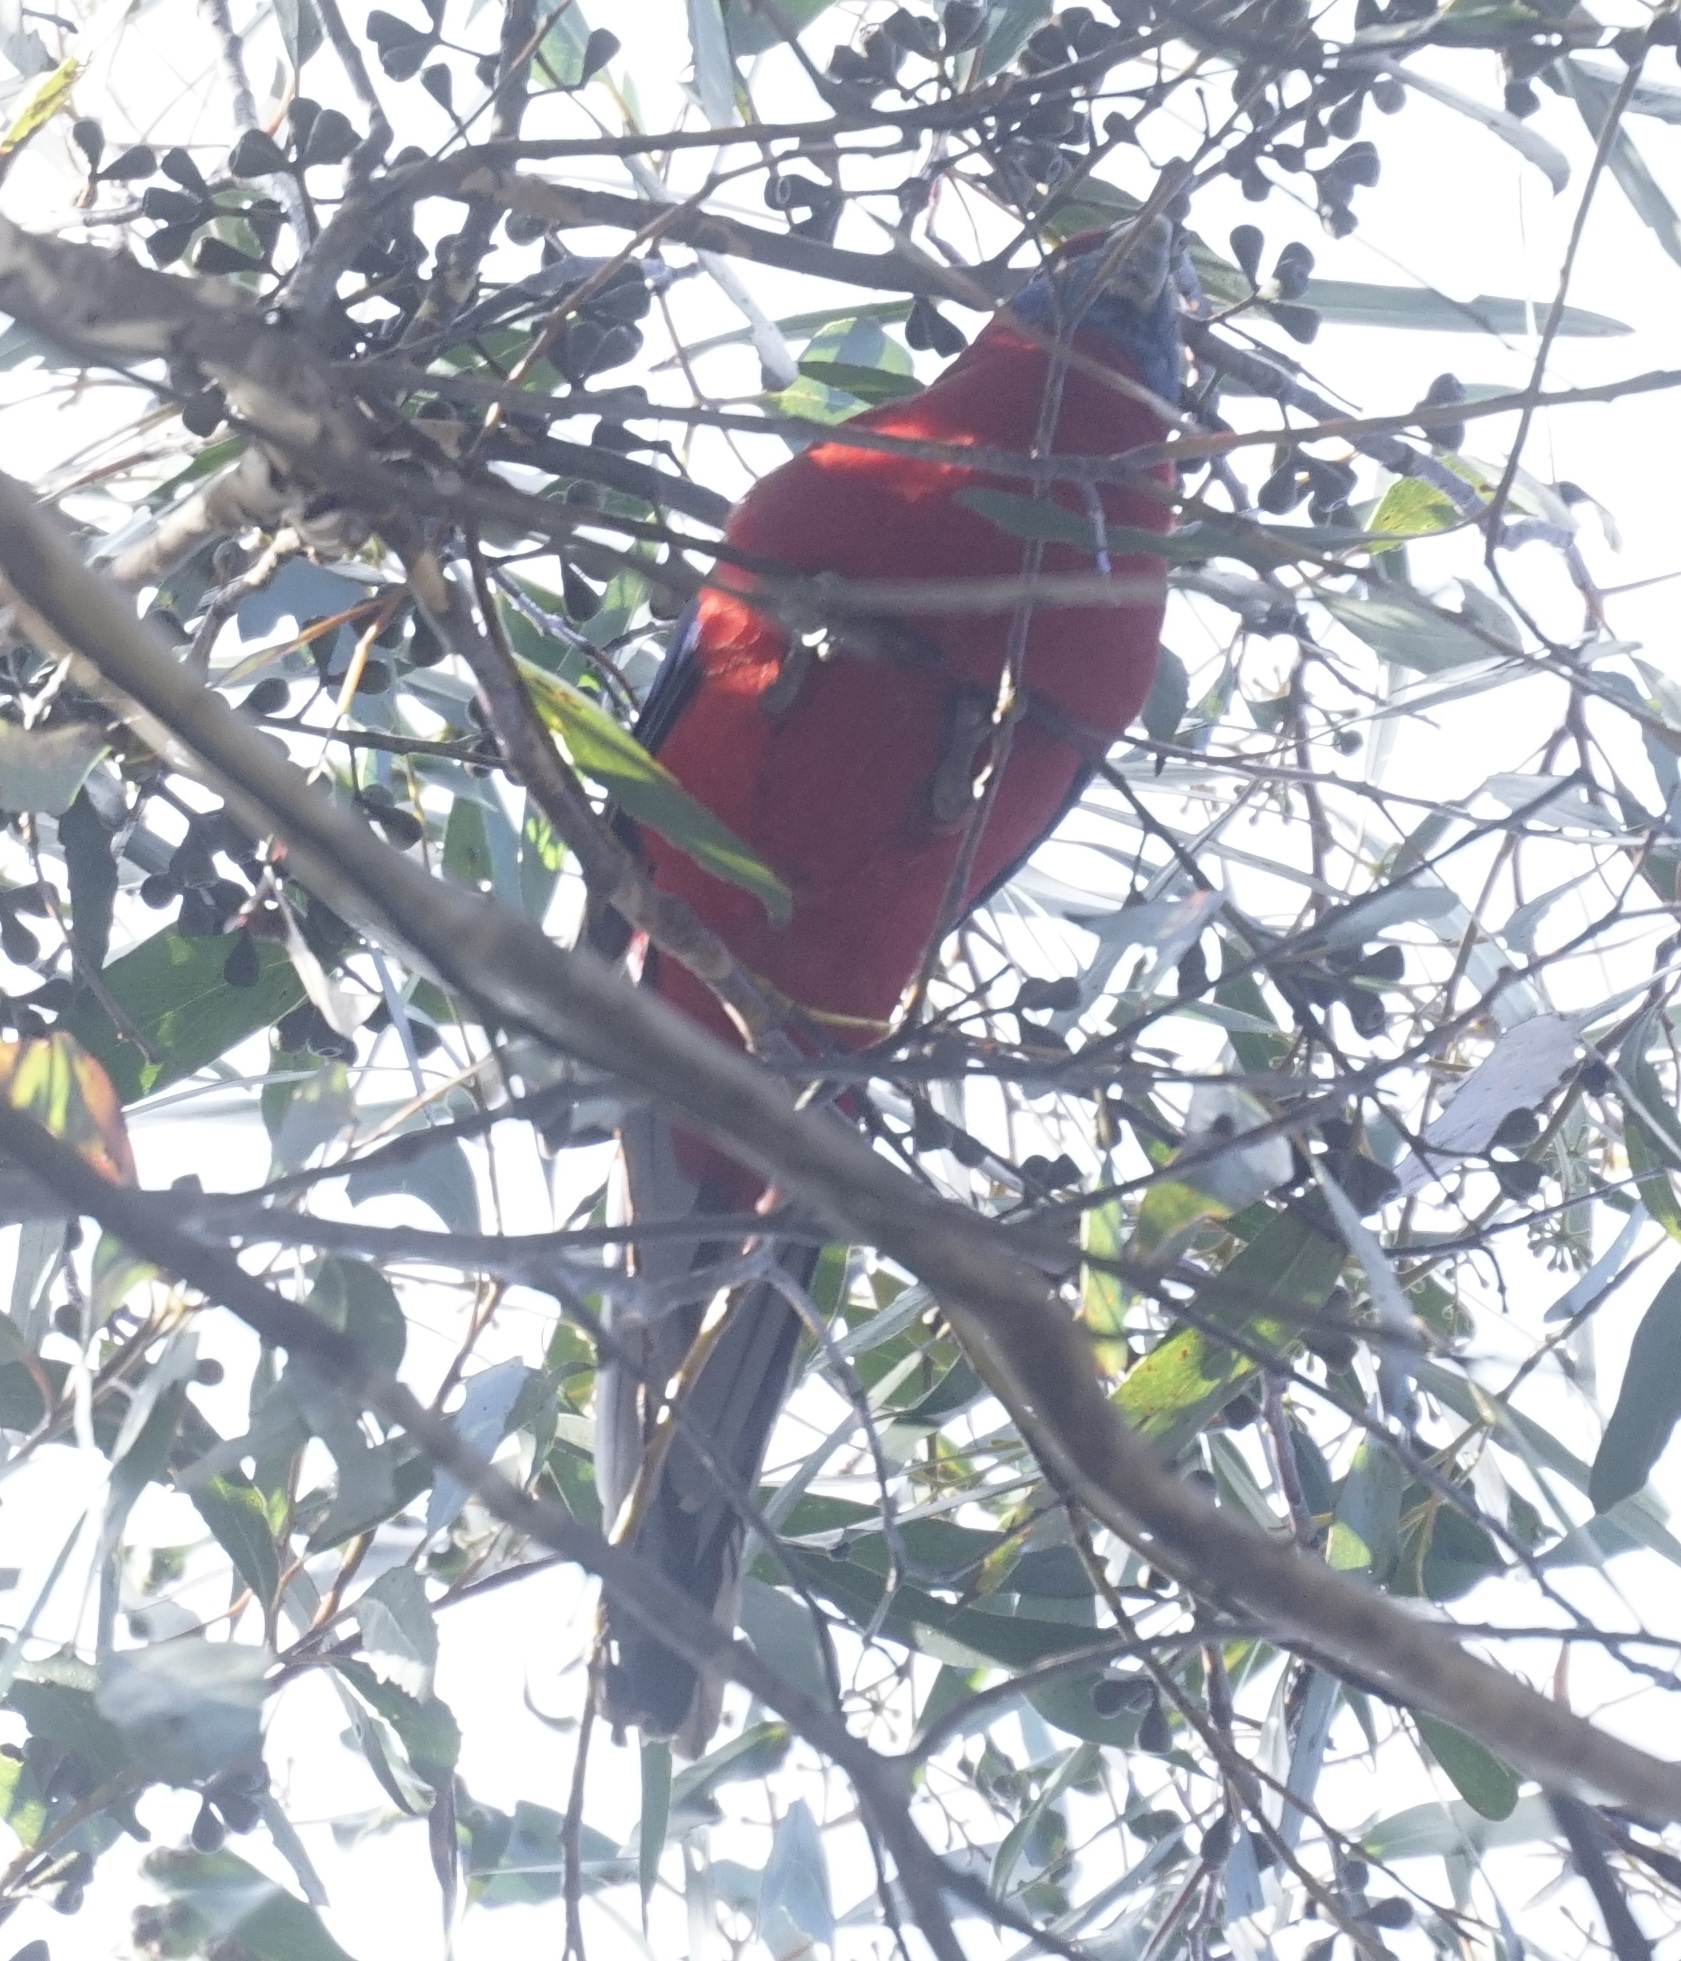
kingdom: Animalia
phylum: Chordata
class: Aves
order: Psittaciformes
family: Psittacidae
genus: Platycercus
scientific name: Platycercus elegans
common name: Crimson rosella
